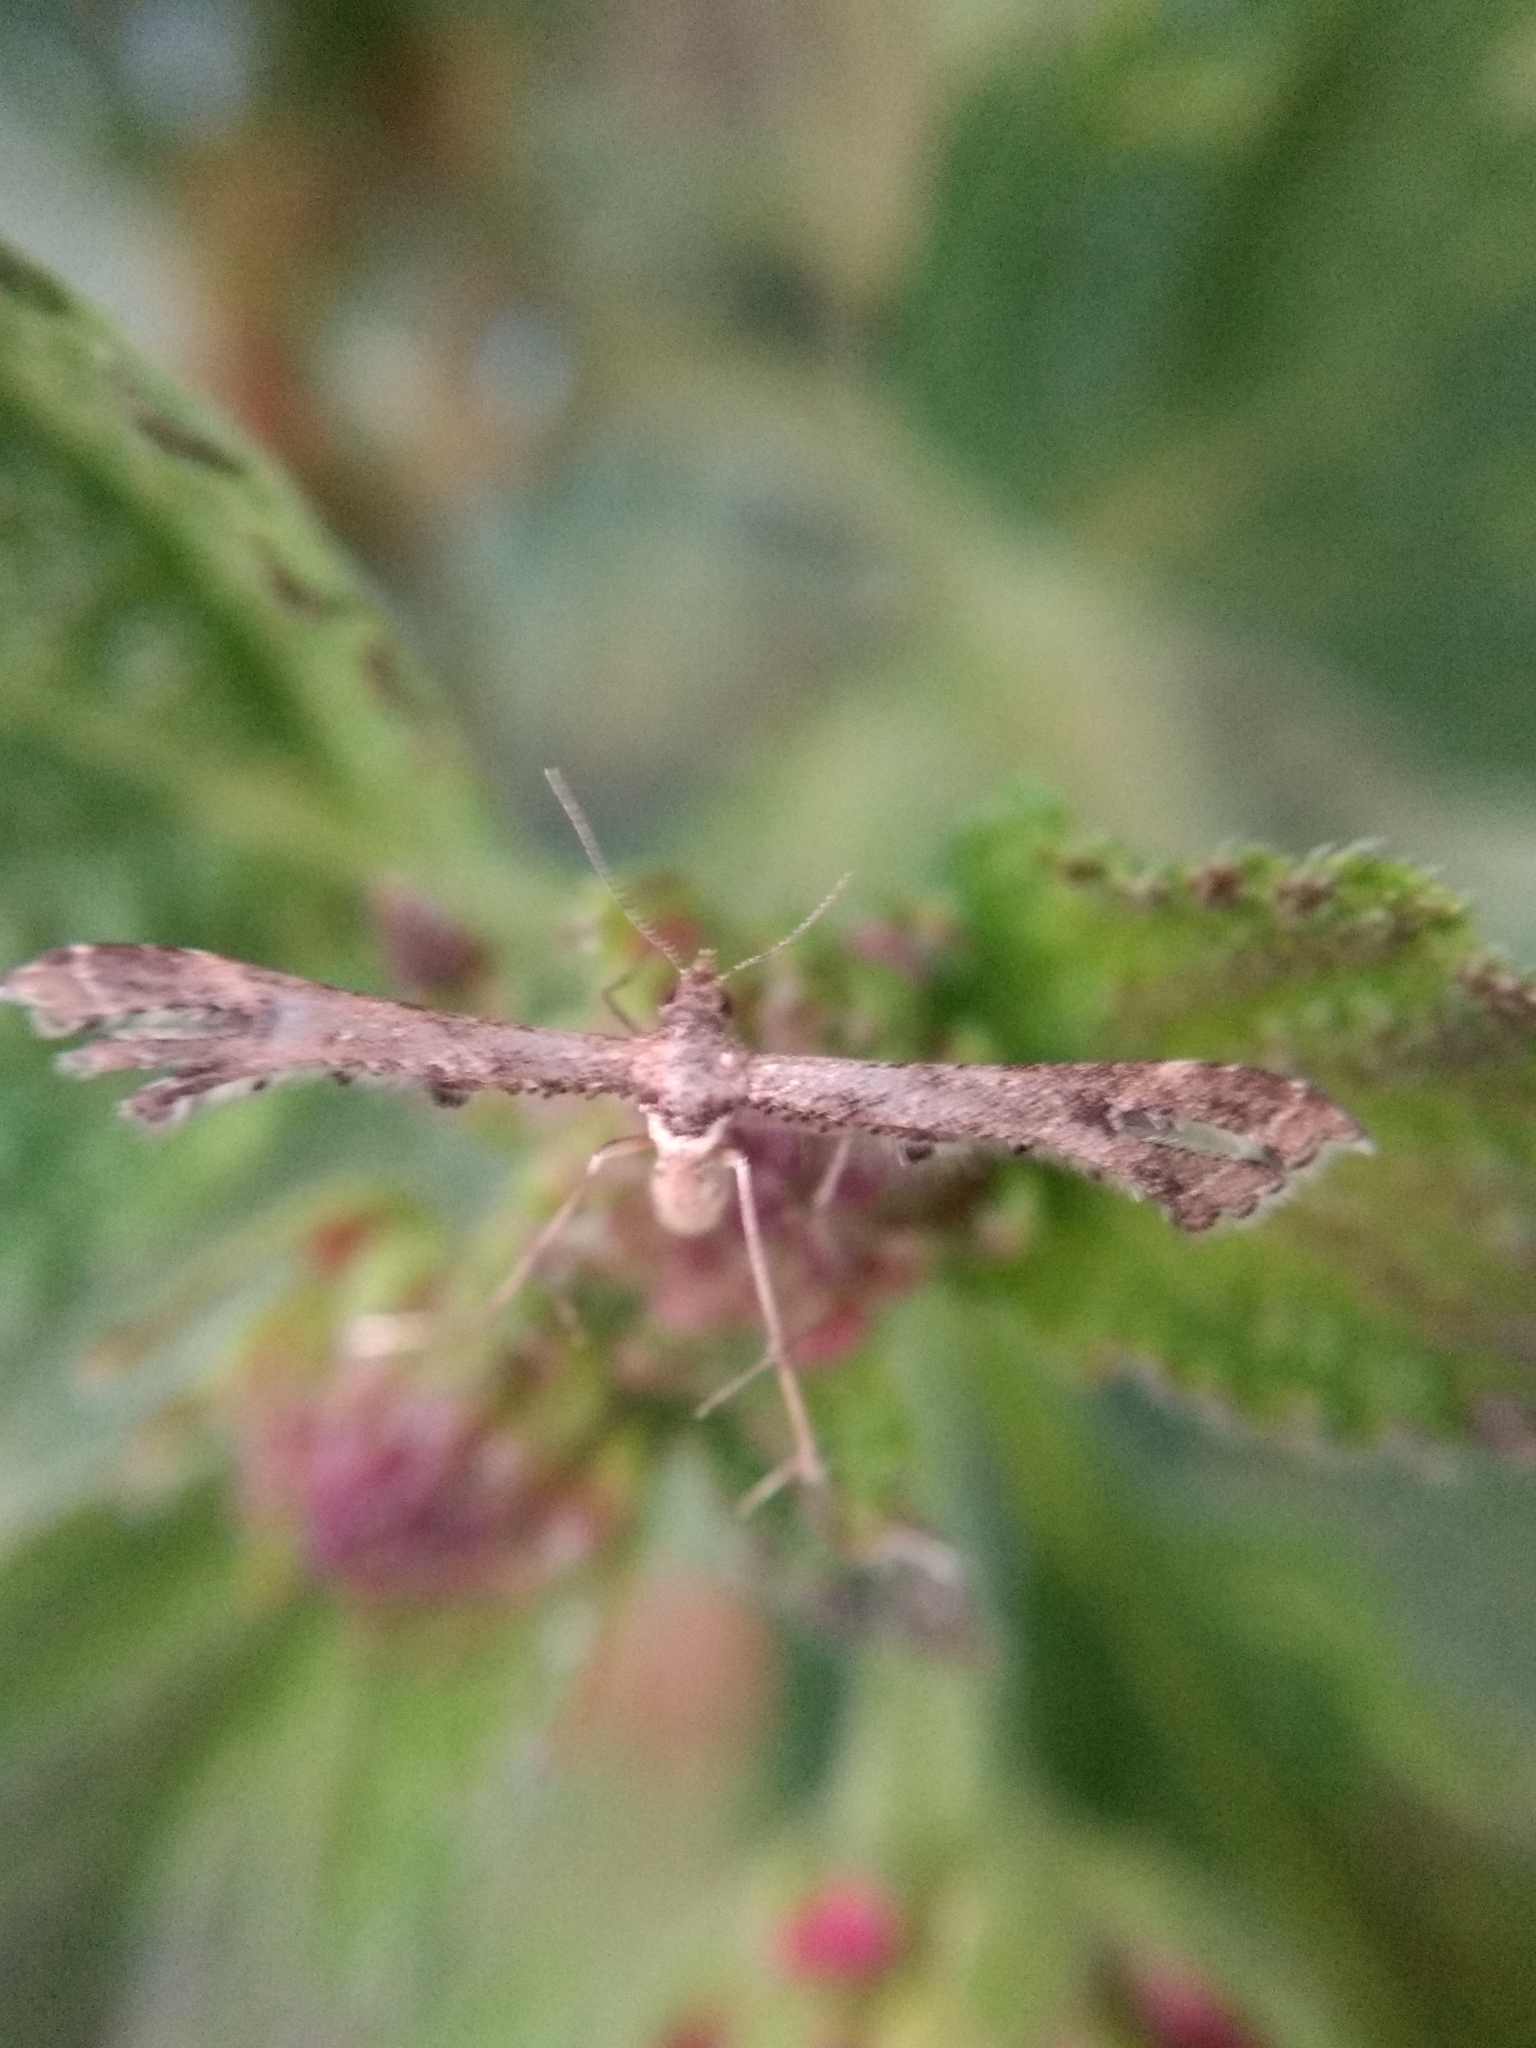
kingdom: Animalia
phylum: Arthropoda
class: Insecta
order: Lepidoptera
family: Pterophoridae
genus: Lantanophaga
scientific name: Lantanophaga pusillidactylus
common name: Moth
